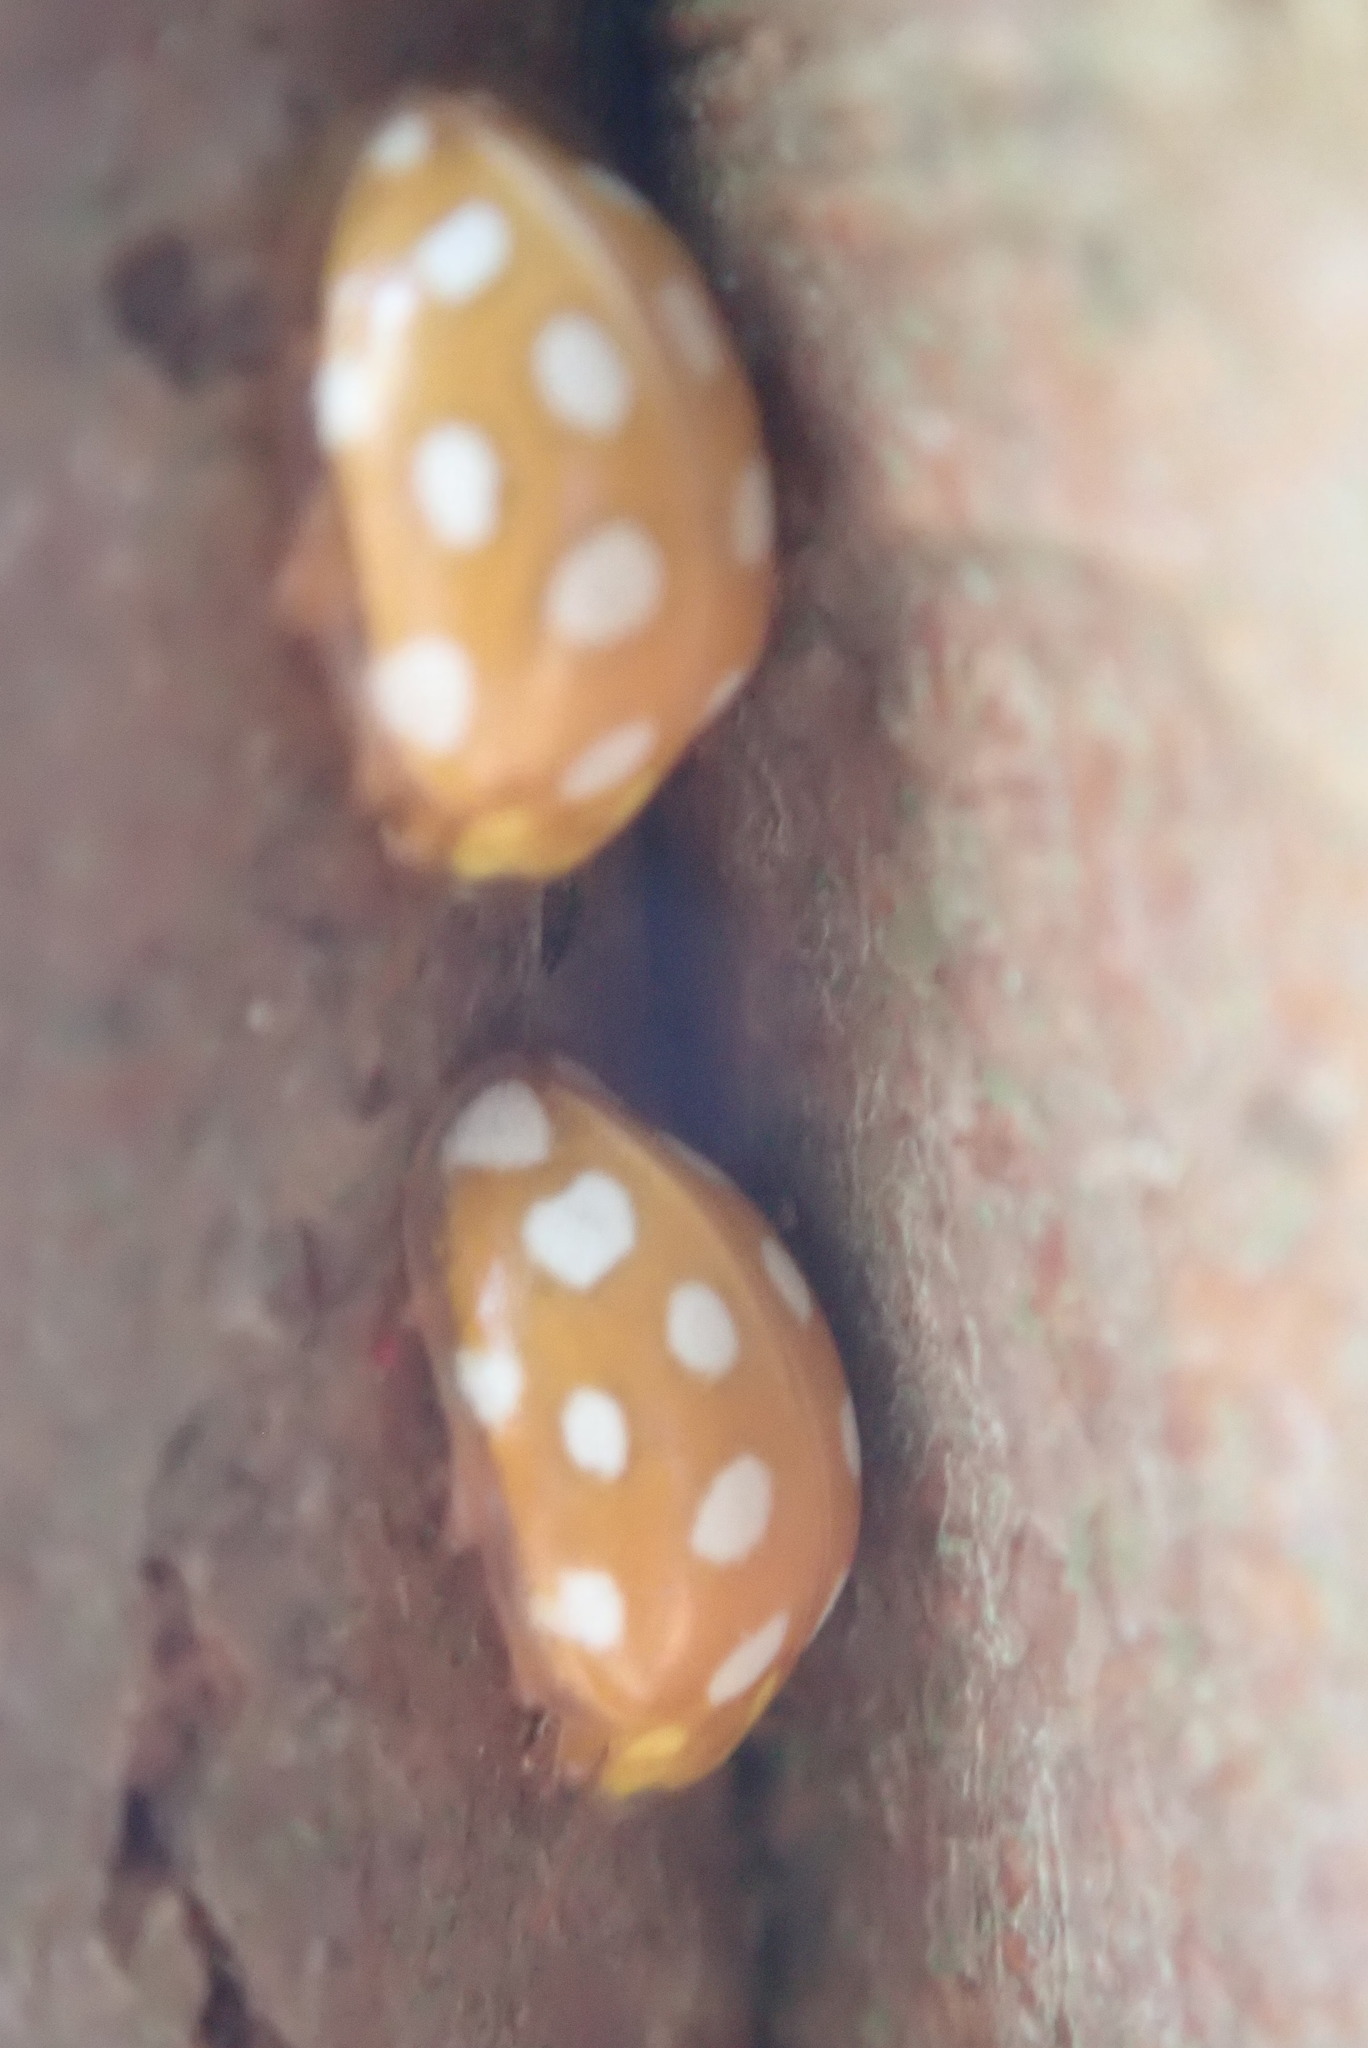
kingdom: Animalia
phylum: Arthropoda
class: Insecta
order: Coleoptera
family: Coccinellidae
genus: Halyzia
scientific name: Halyzia sedecimguttata
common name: Orange ladybird
